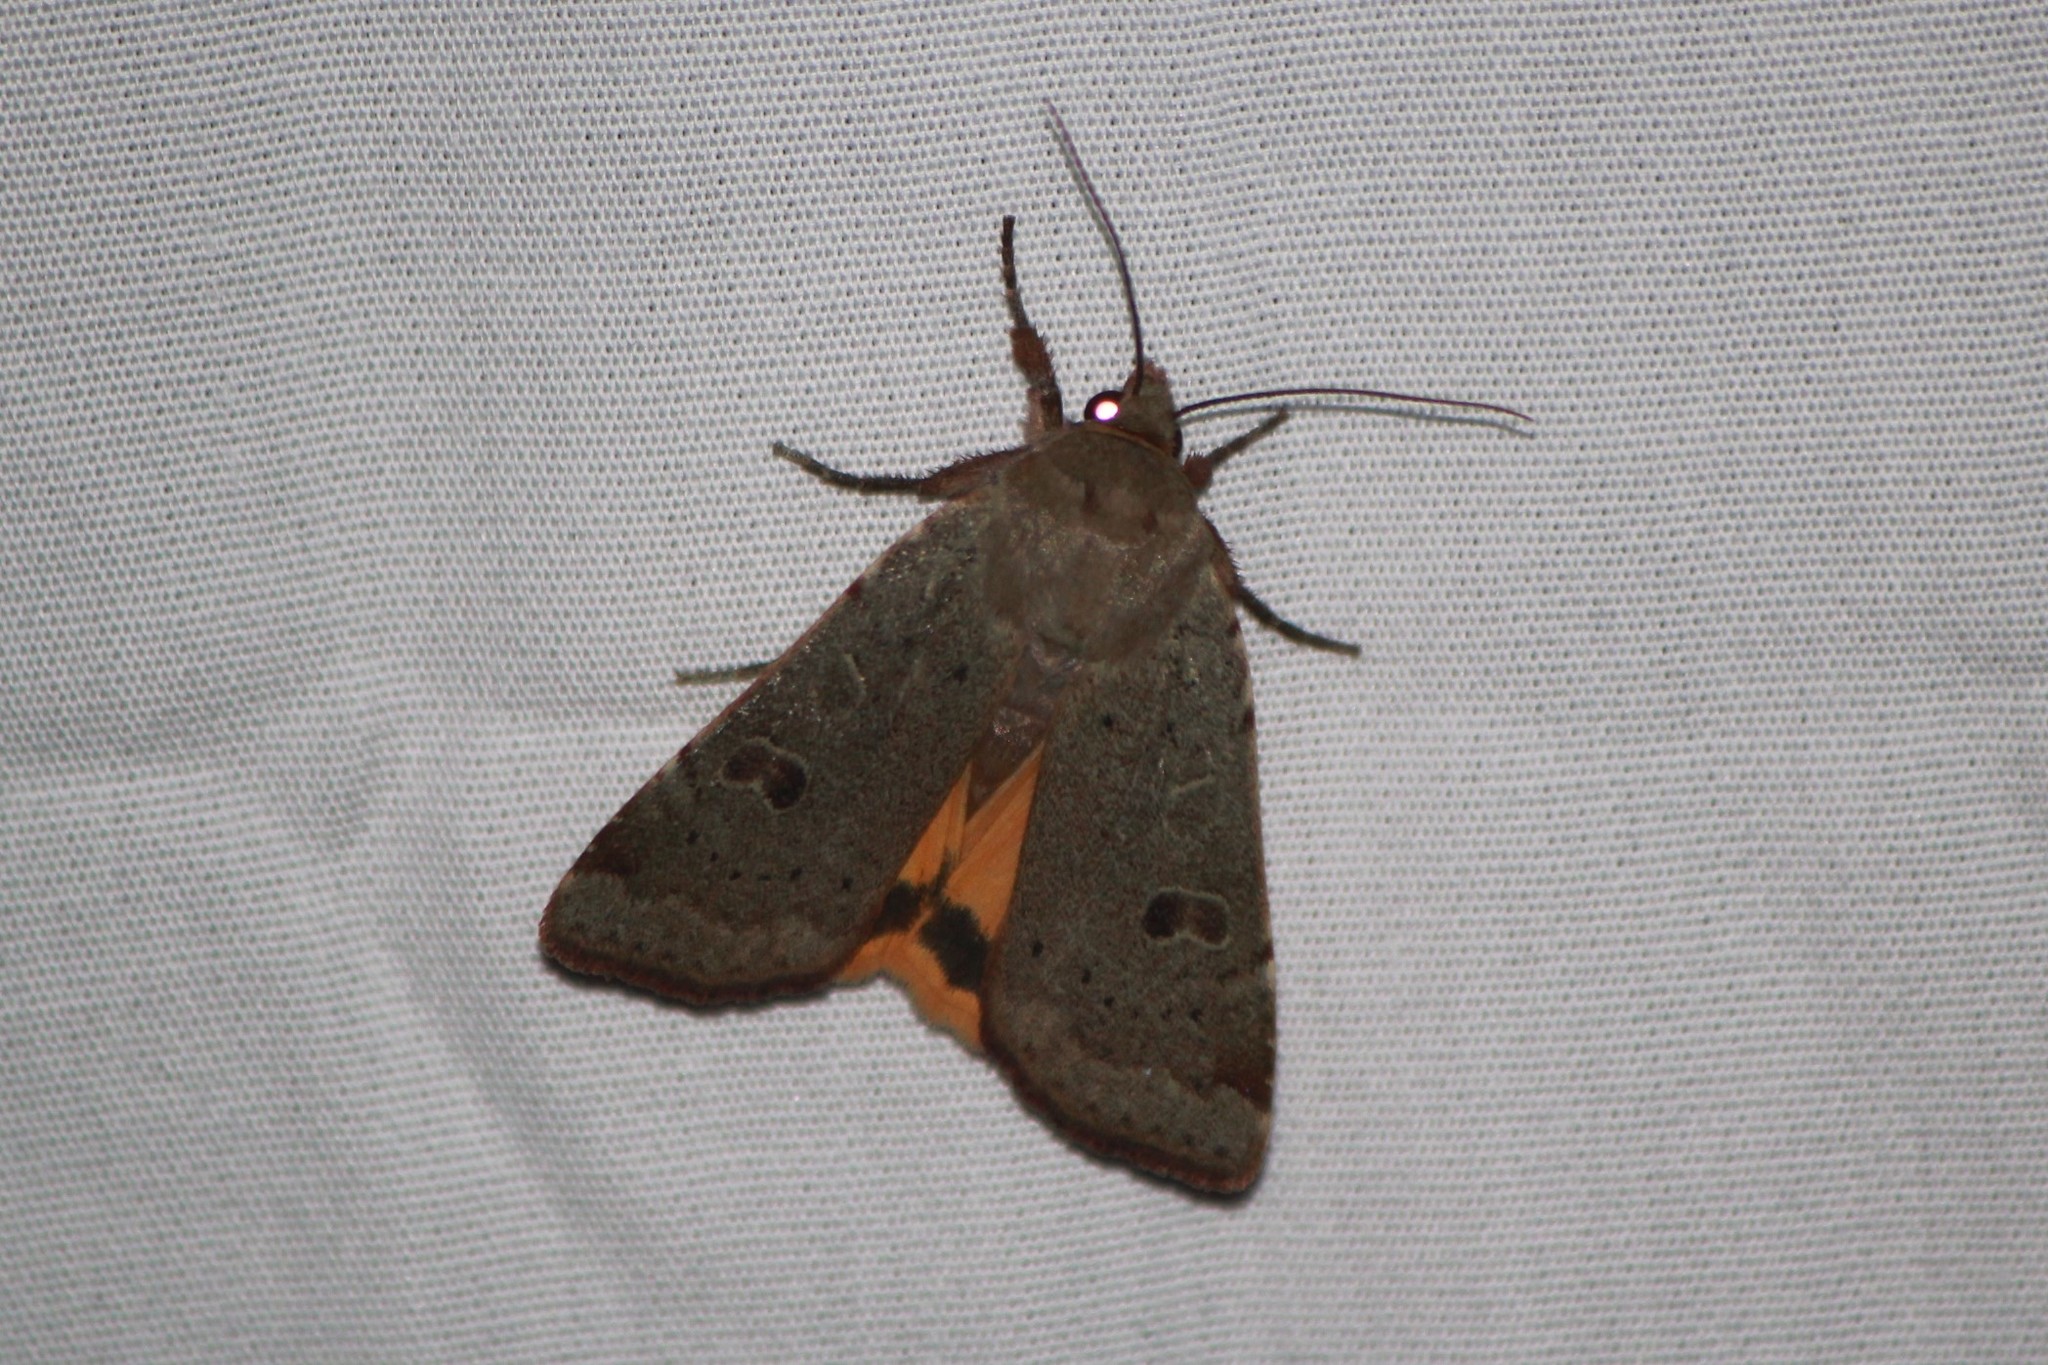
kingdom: Animalia
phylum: Arthropoda
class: Insecta
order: Lepidoptera
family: Noctuidae
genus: Noctua
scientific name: Noctua comes
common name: Lesser yellow underwing
